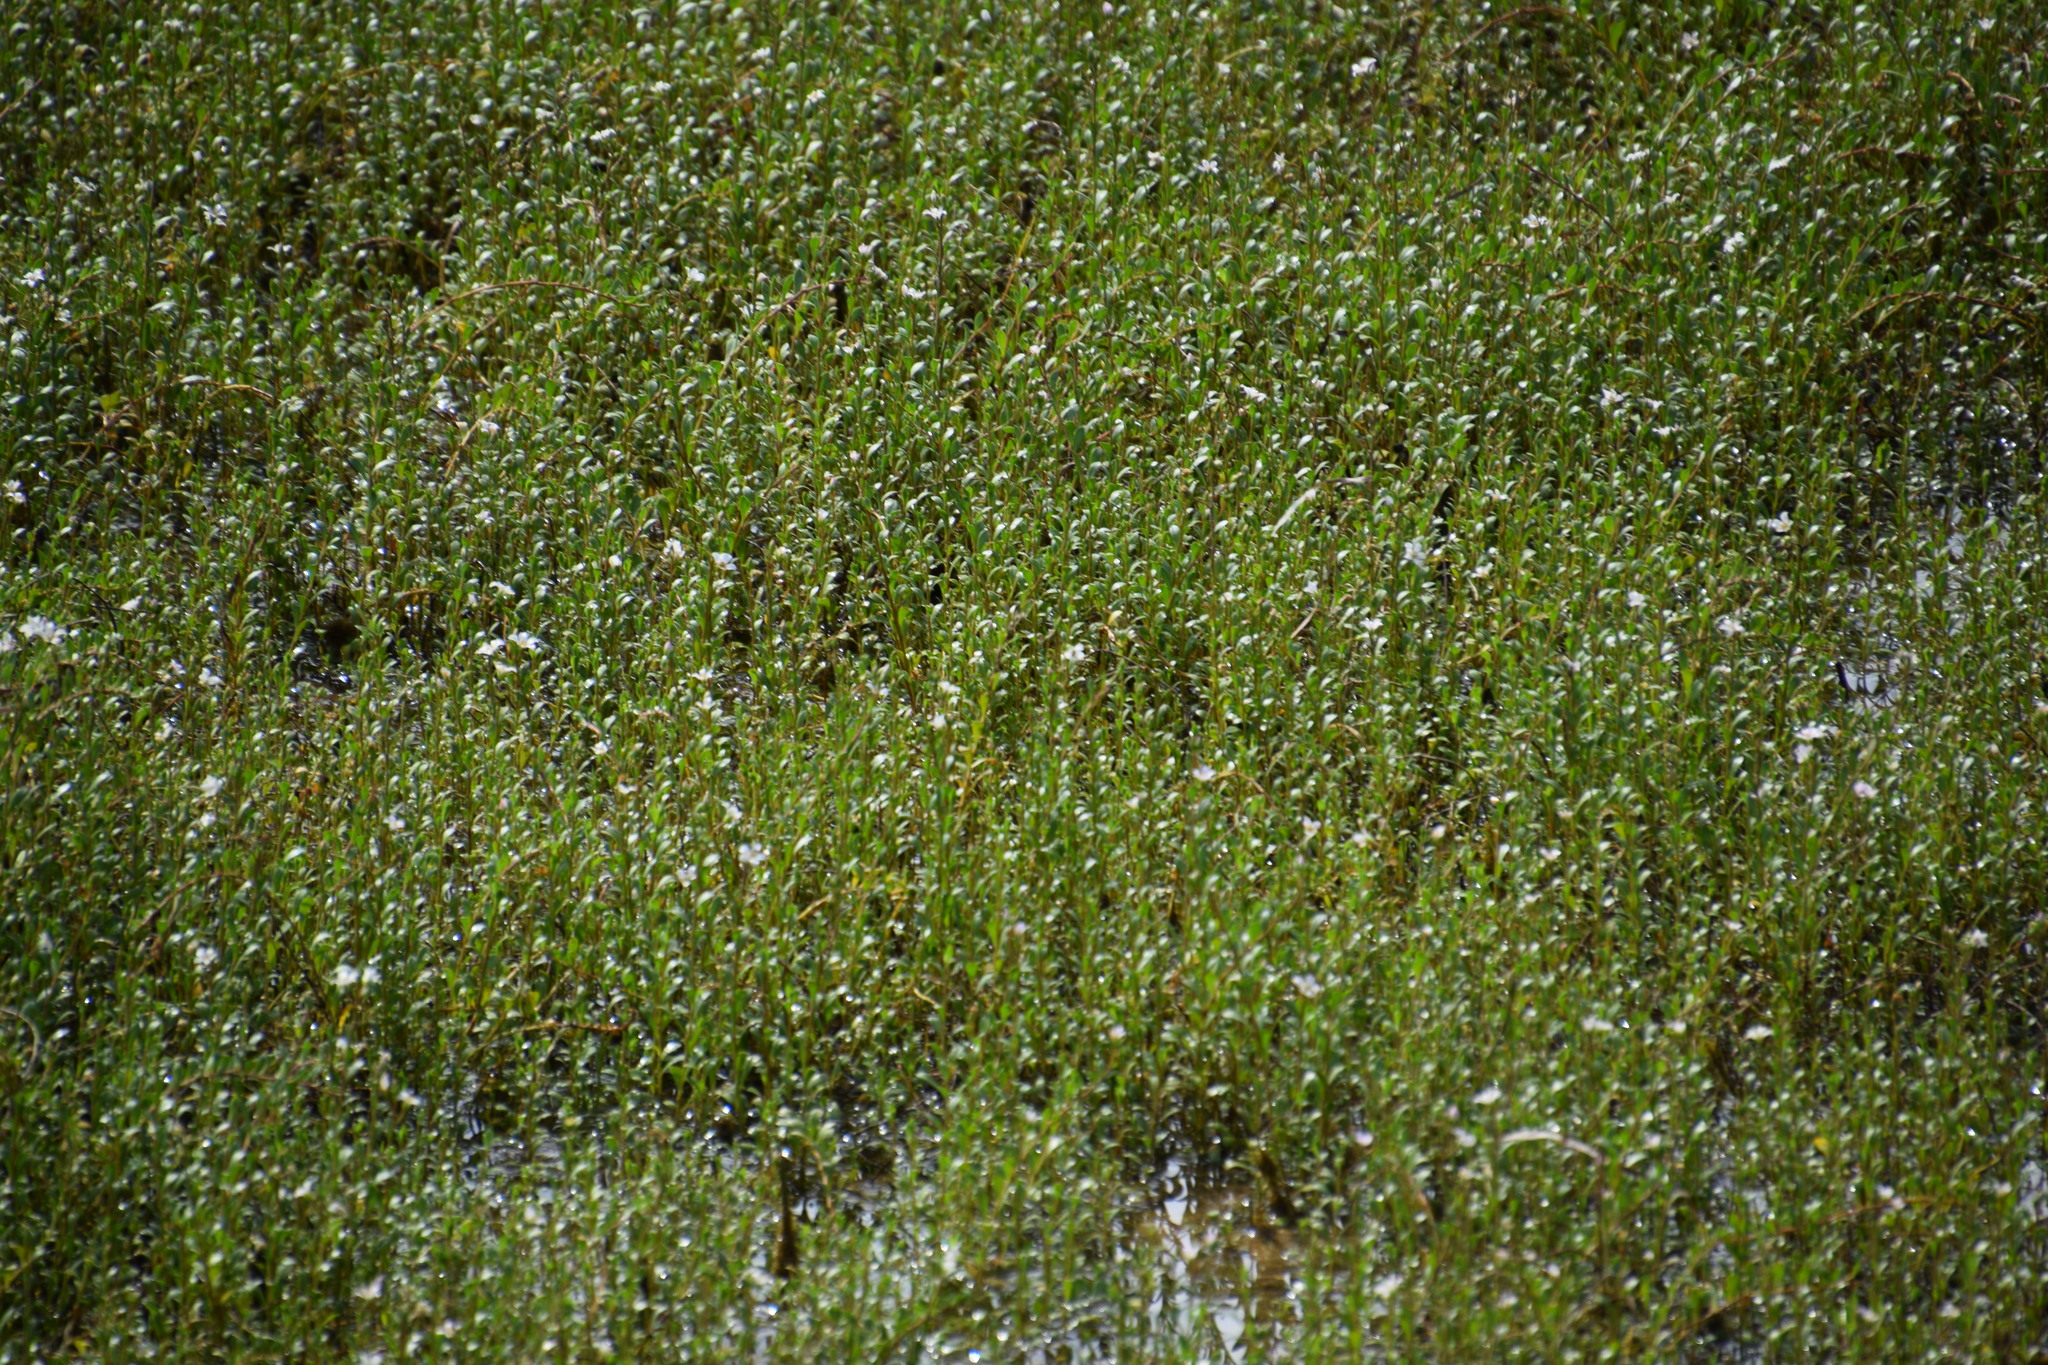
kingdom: Plantae
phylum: Tracheophyta
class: Magnoliopsida
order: Ericales
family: Primulaceae
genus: Samolus
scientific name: Samolus repens
